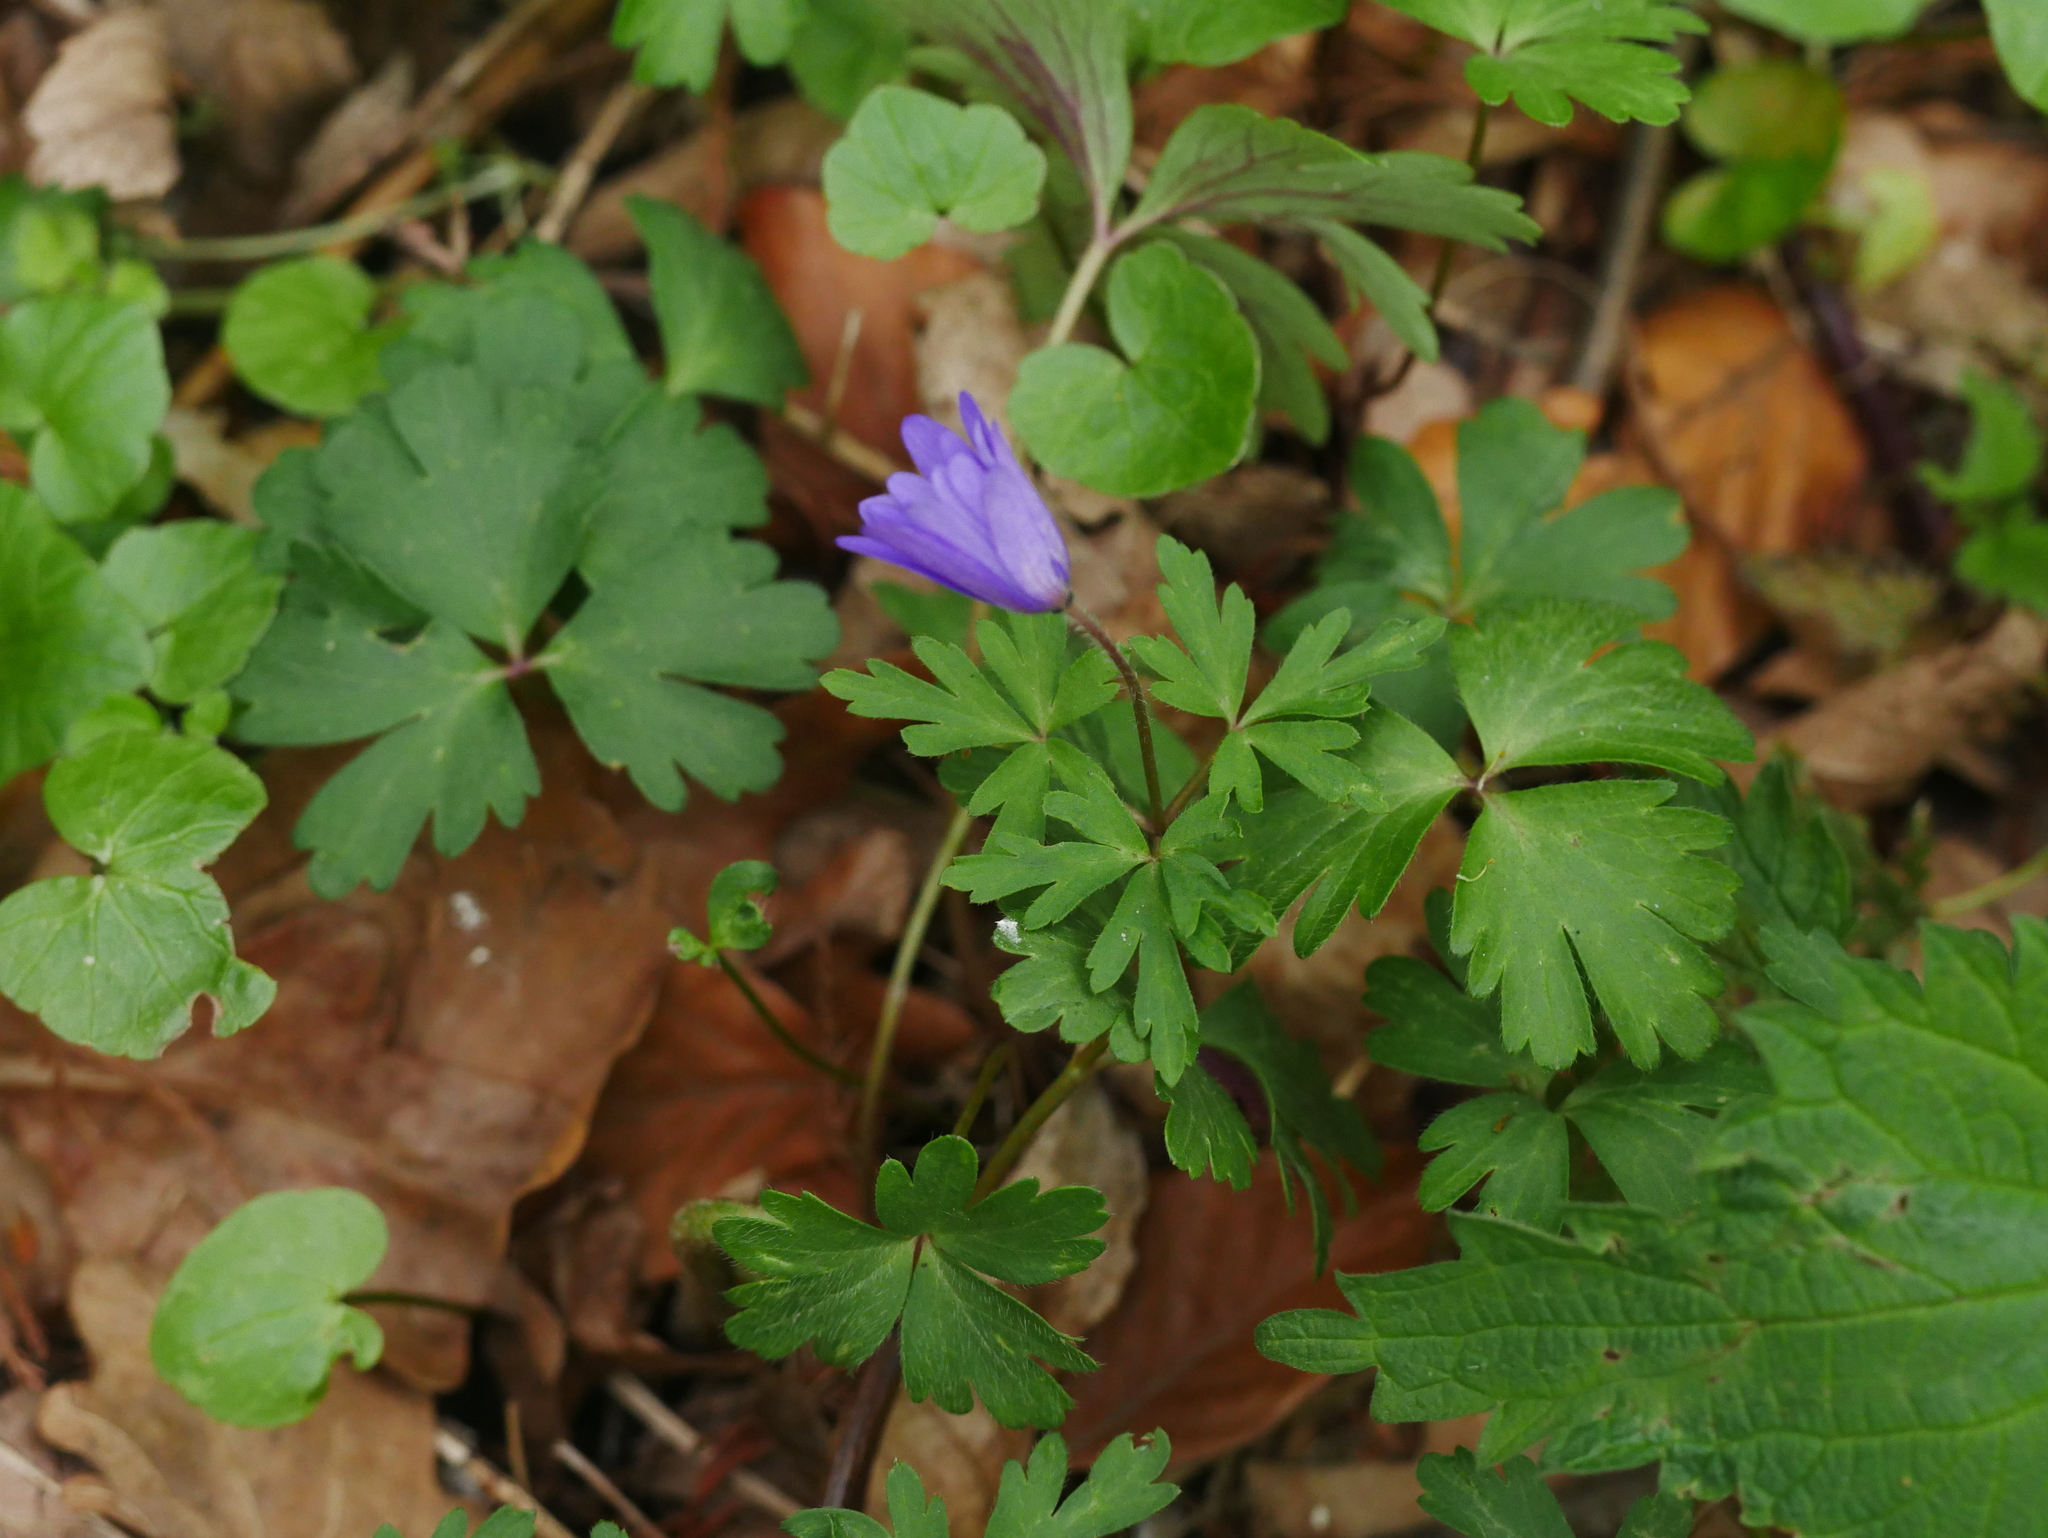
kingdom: Plantae
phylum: Tracheophyta
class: Magnoliopsida
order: Ranunculales
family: Ranunculaceae
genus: Anemone
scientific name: Anemone blanda
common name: Balkan anemone
